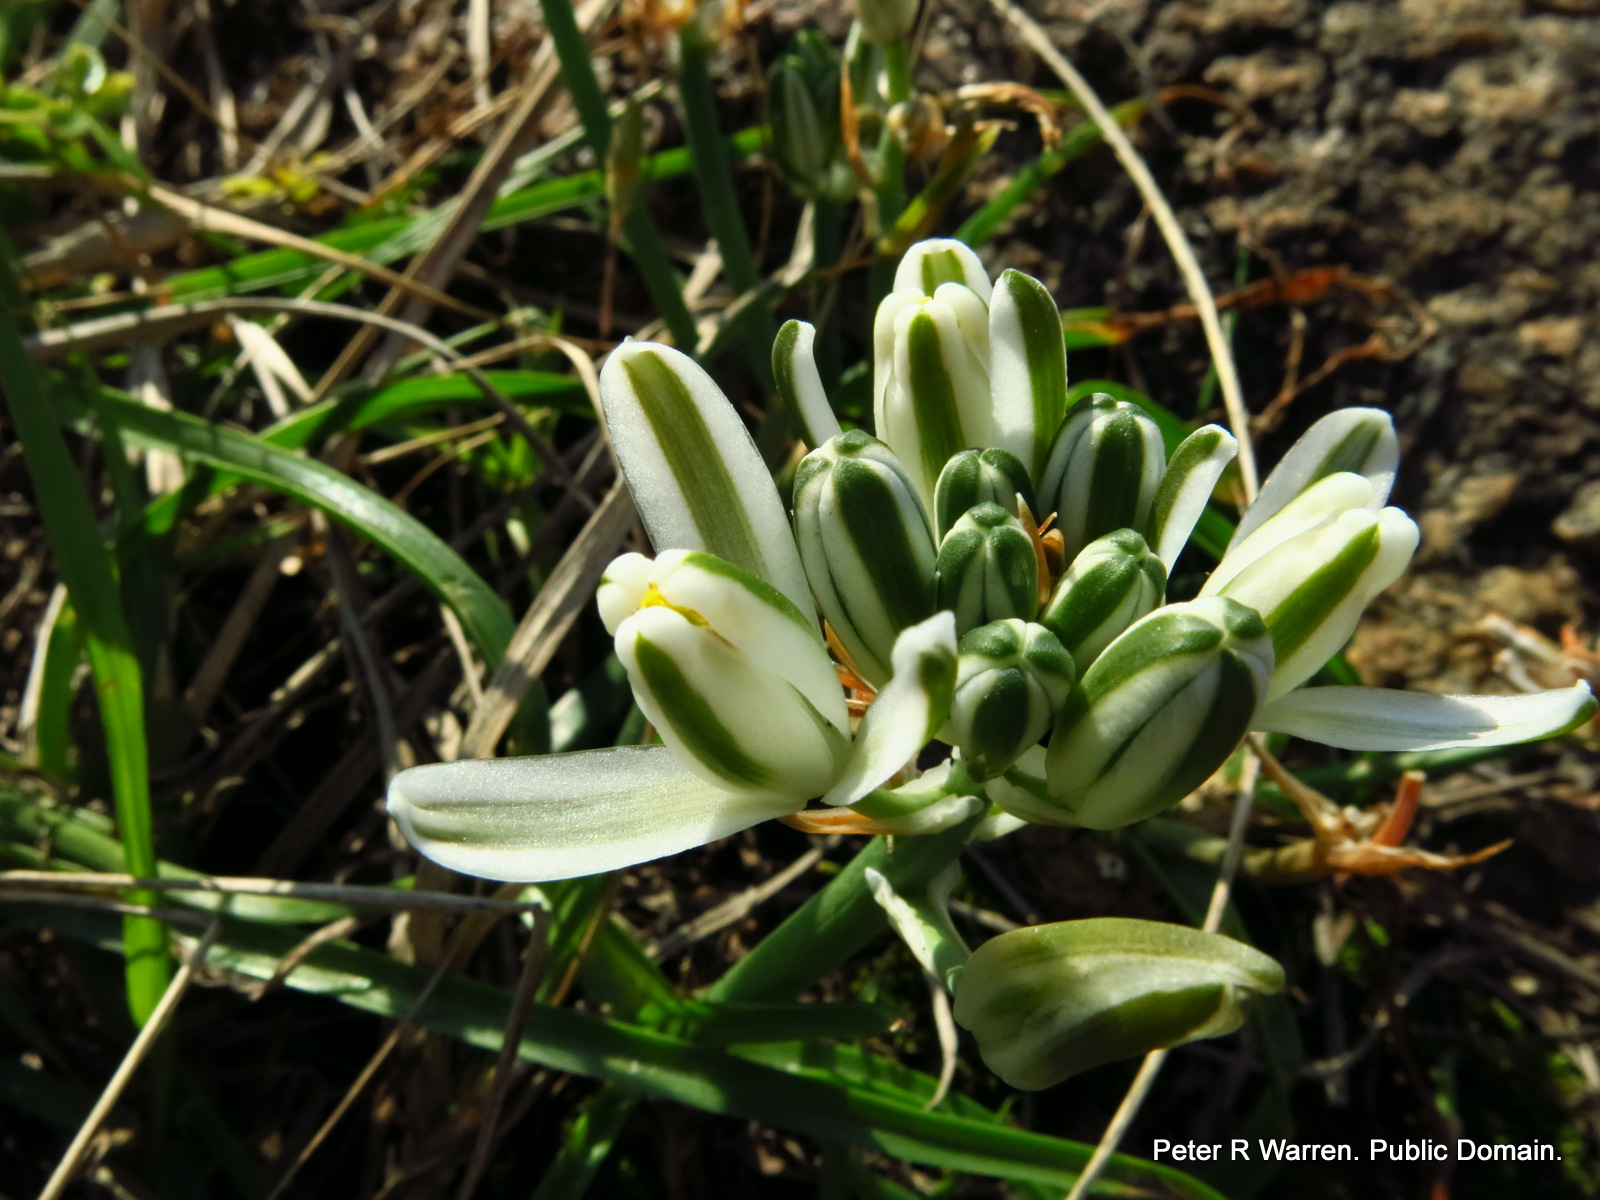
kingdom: Plantae
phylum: Tracheophyta
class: Liliopsida
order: Asparagales
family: Asparagaceae
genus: Albuca
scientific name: Albuca nelsonii
